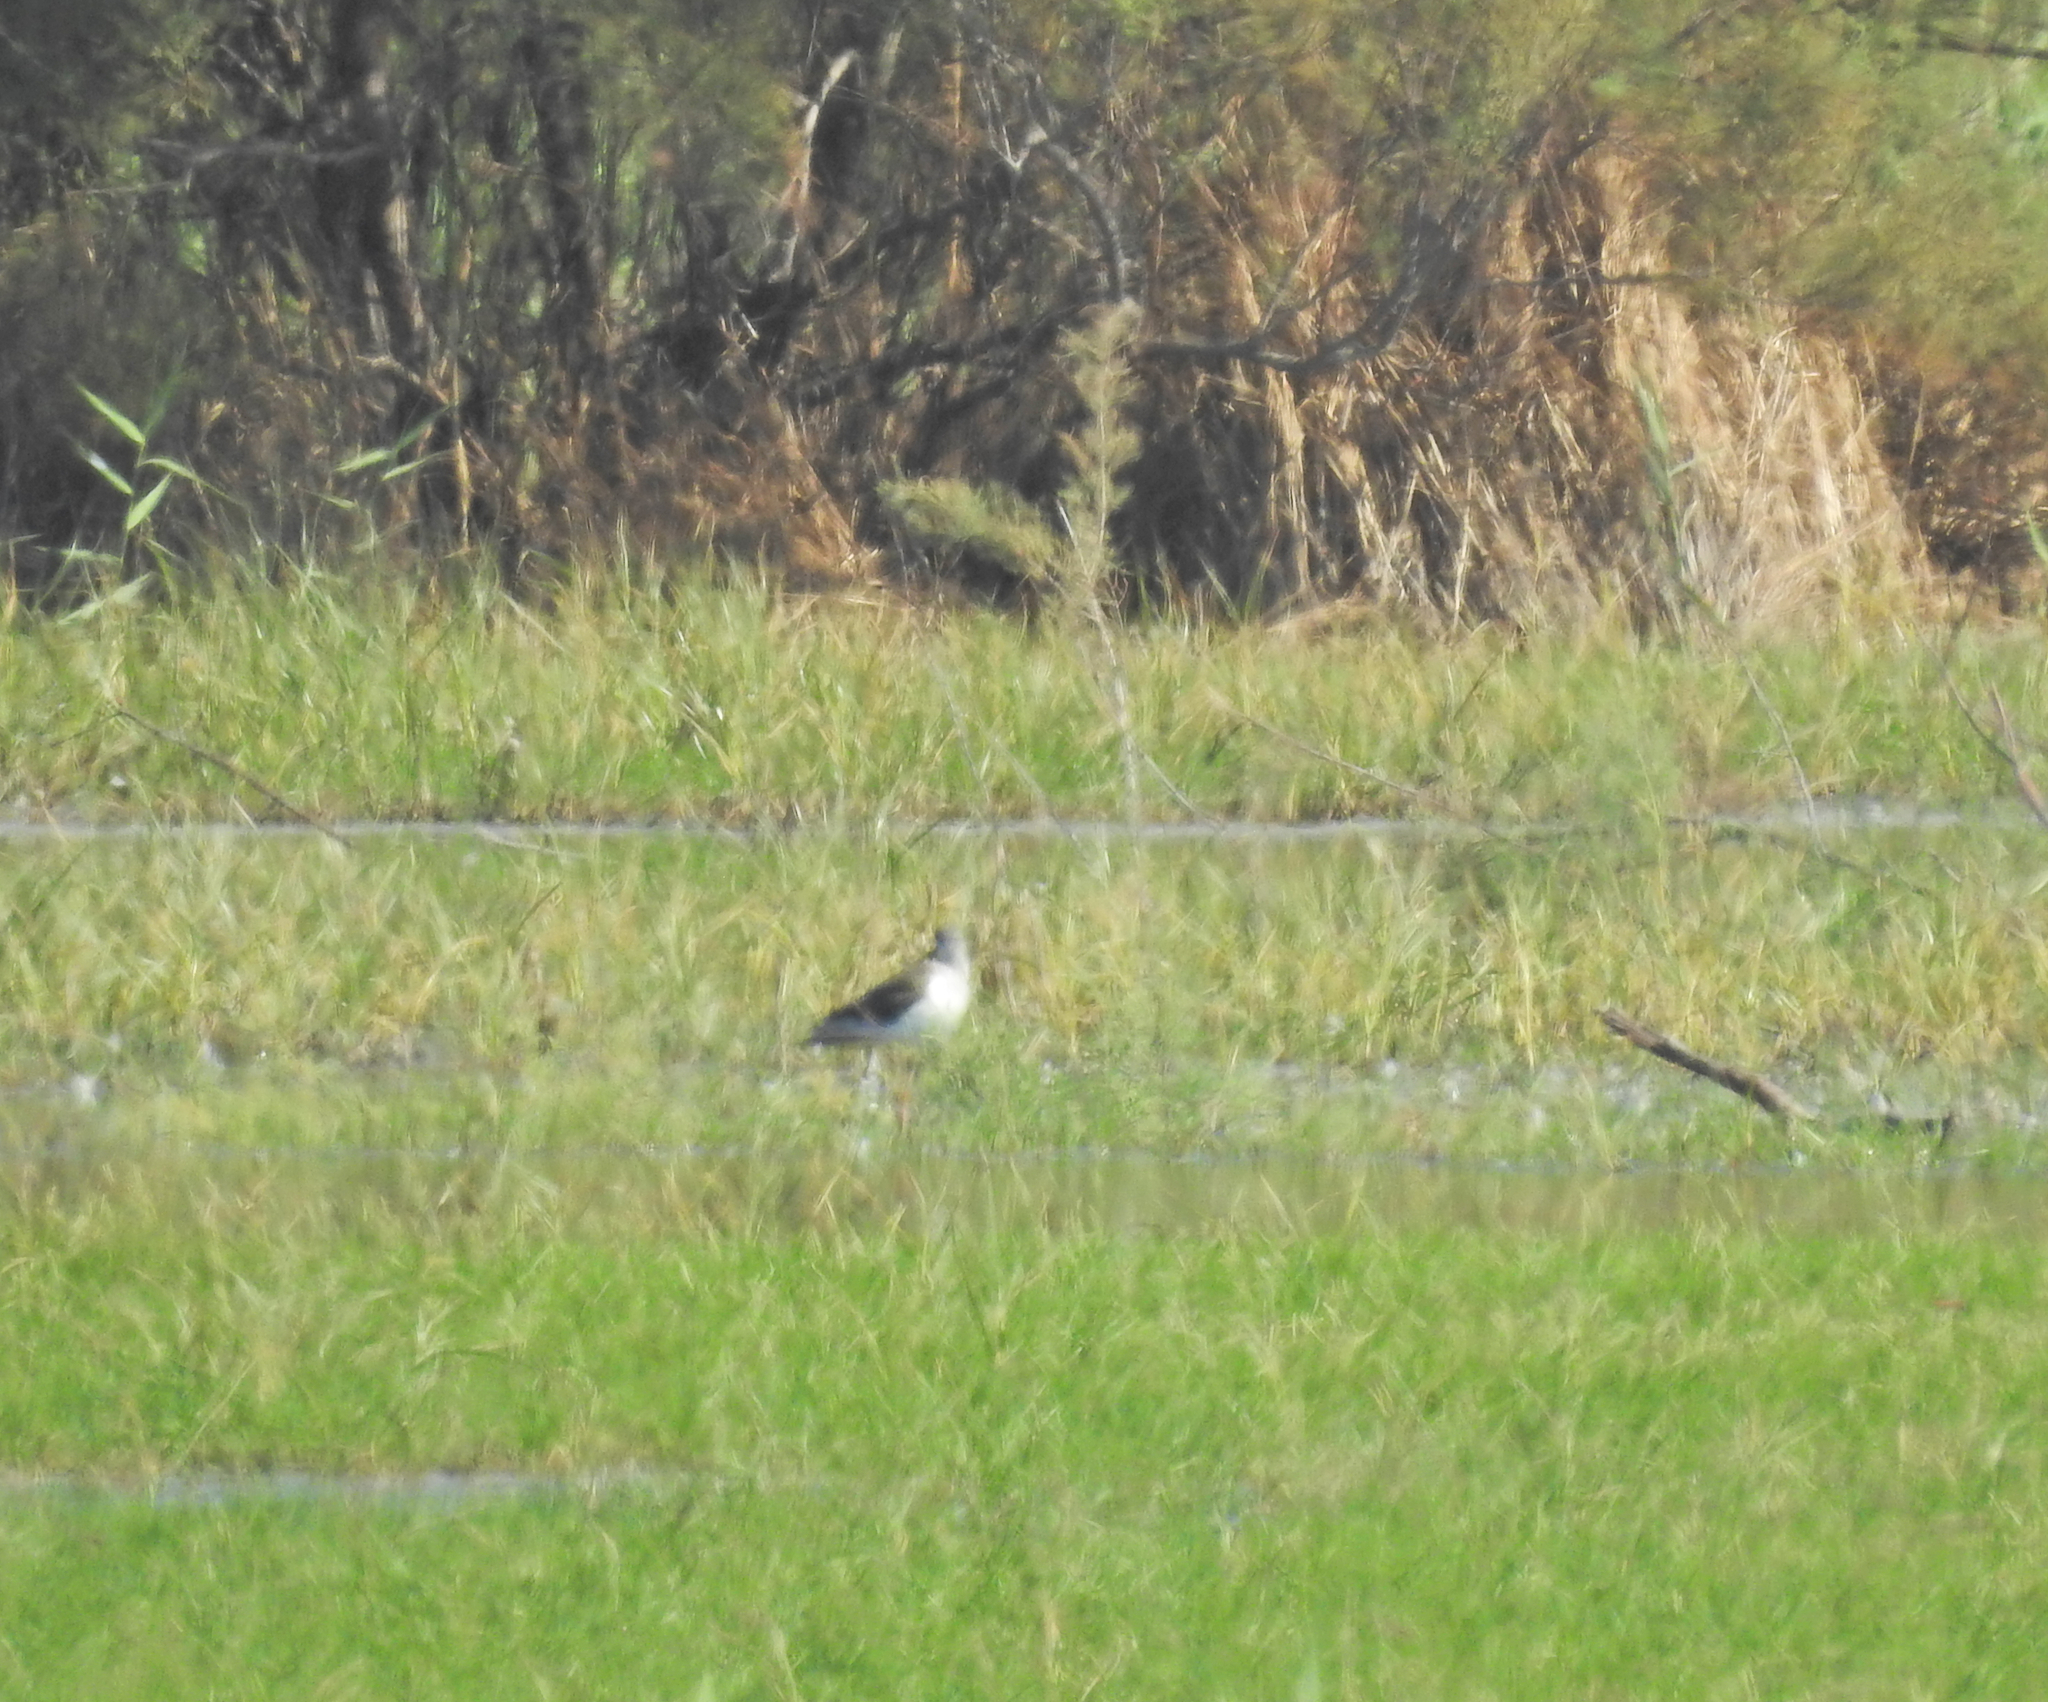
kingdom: Animalia
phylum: Chordata
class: Aves
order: Charadriiformes
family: Recurvirostridae
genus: Himantopus
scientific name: Himantopus himantopus
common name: Black-winged stilt
